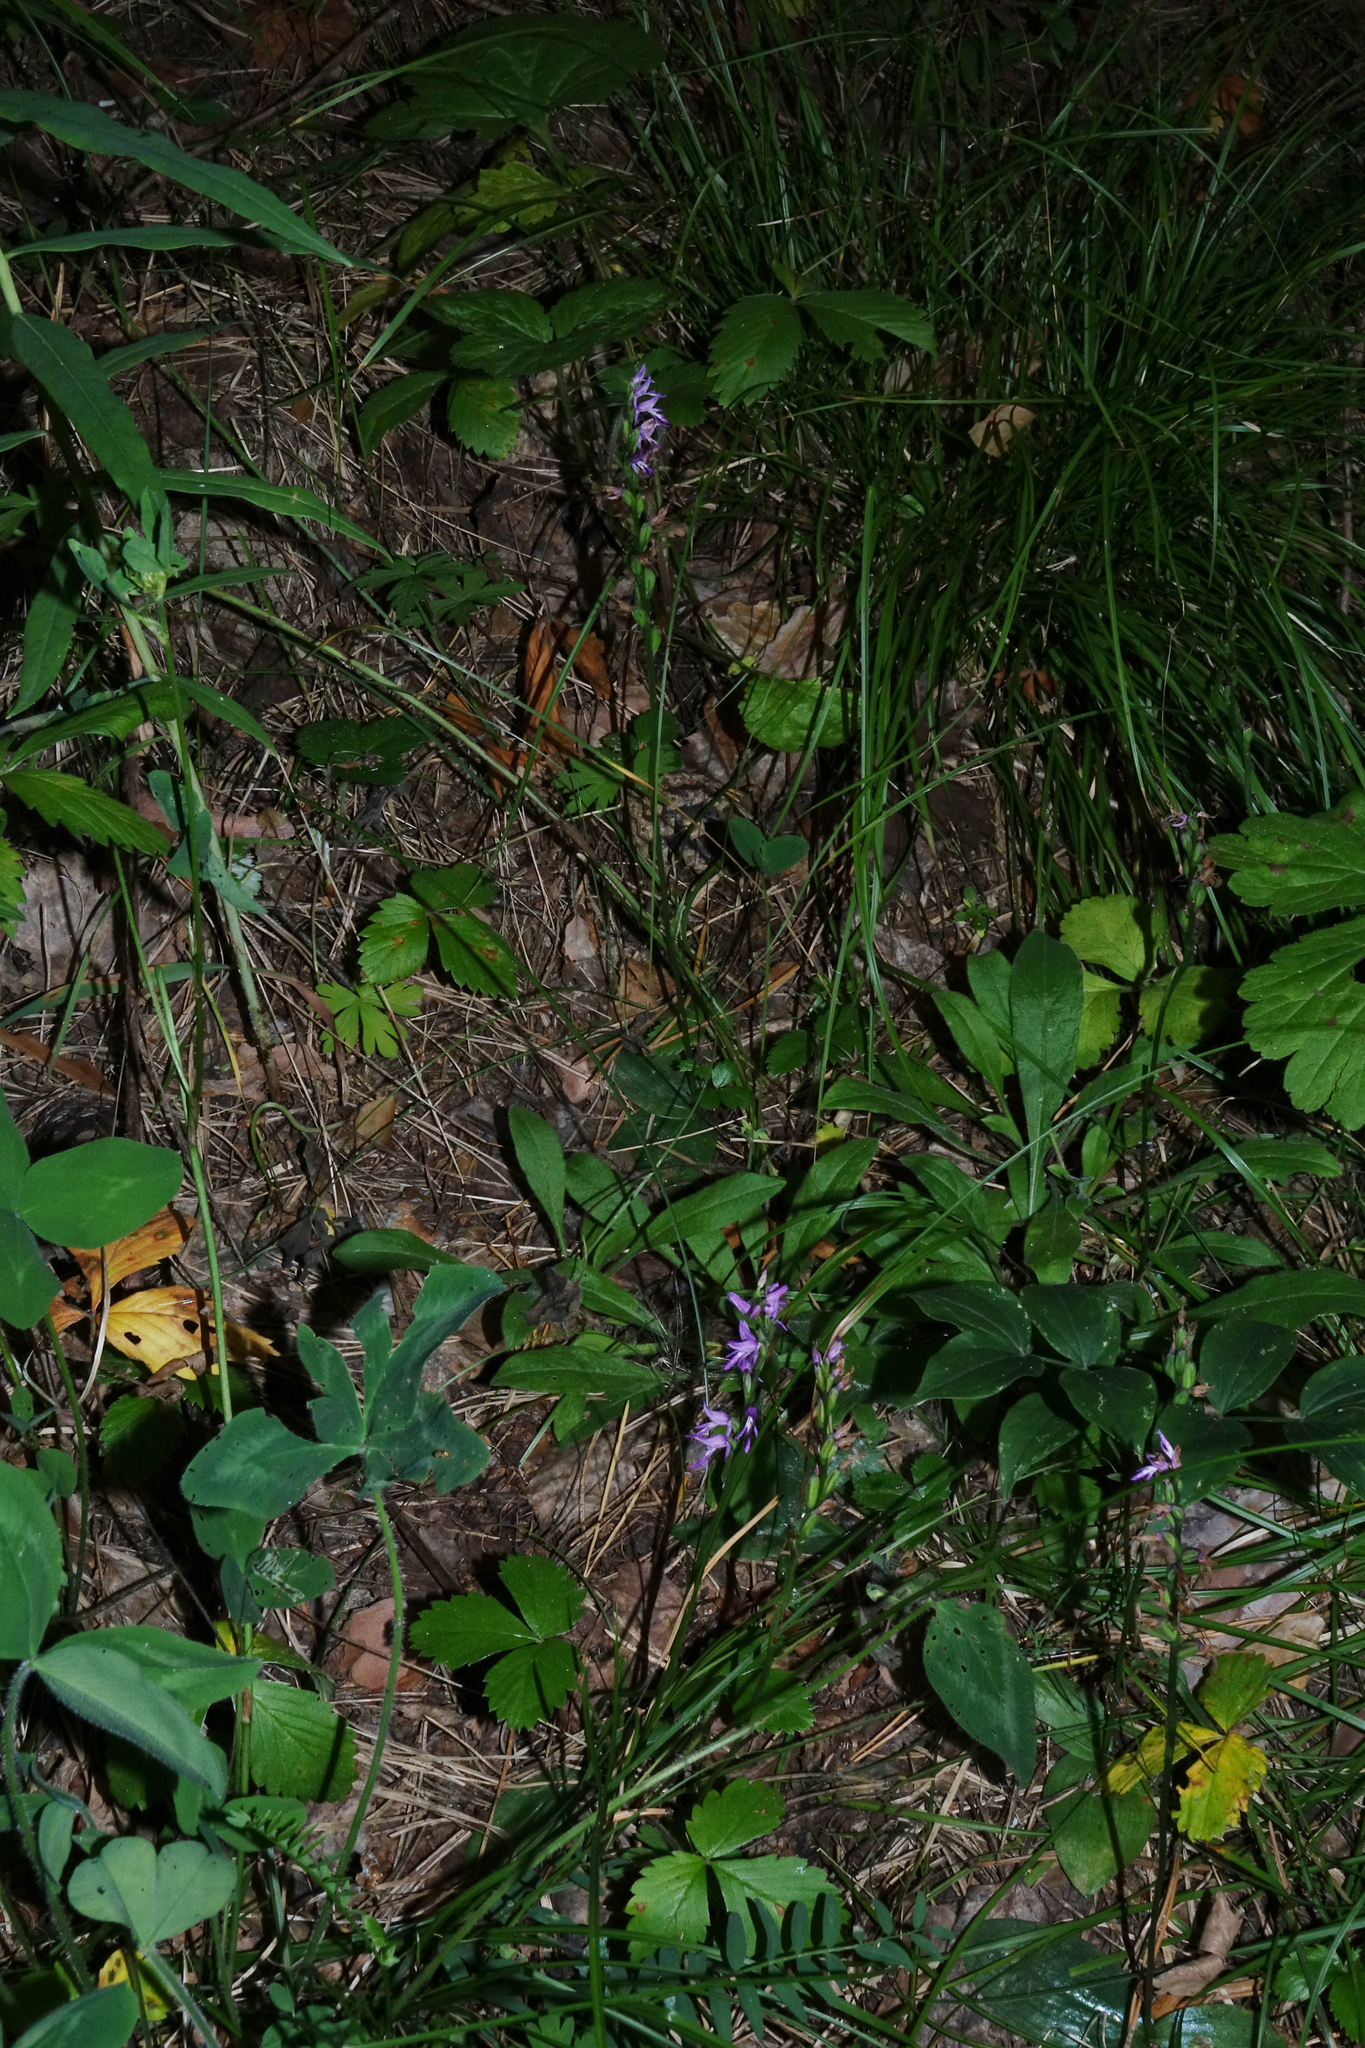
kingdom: Plantae
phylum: Tracheophyta
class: Liliopsida
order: Asparagales
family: Orchidaceae
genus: Hemipilia
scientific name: Hemipilia cucullata
